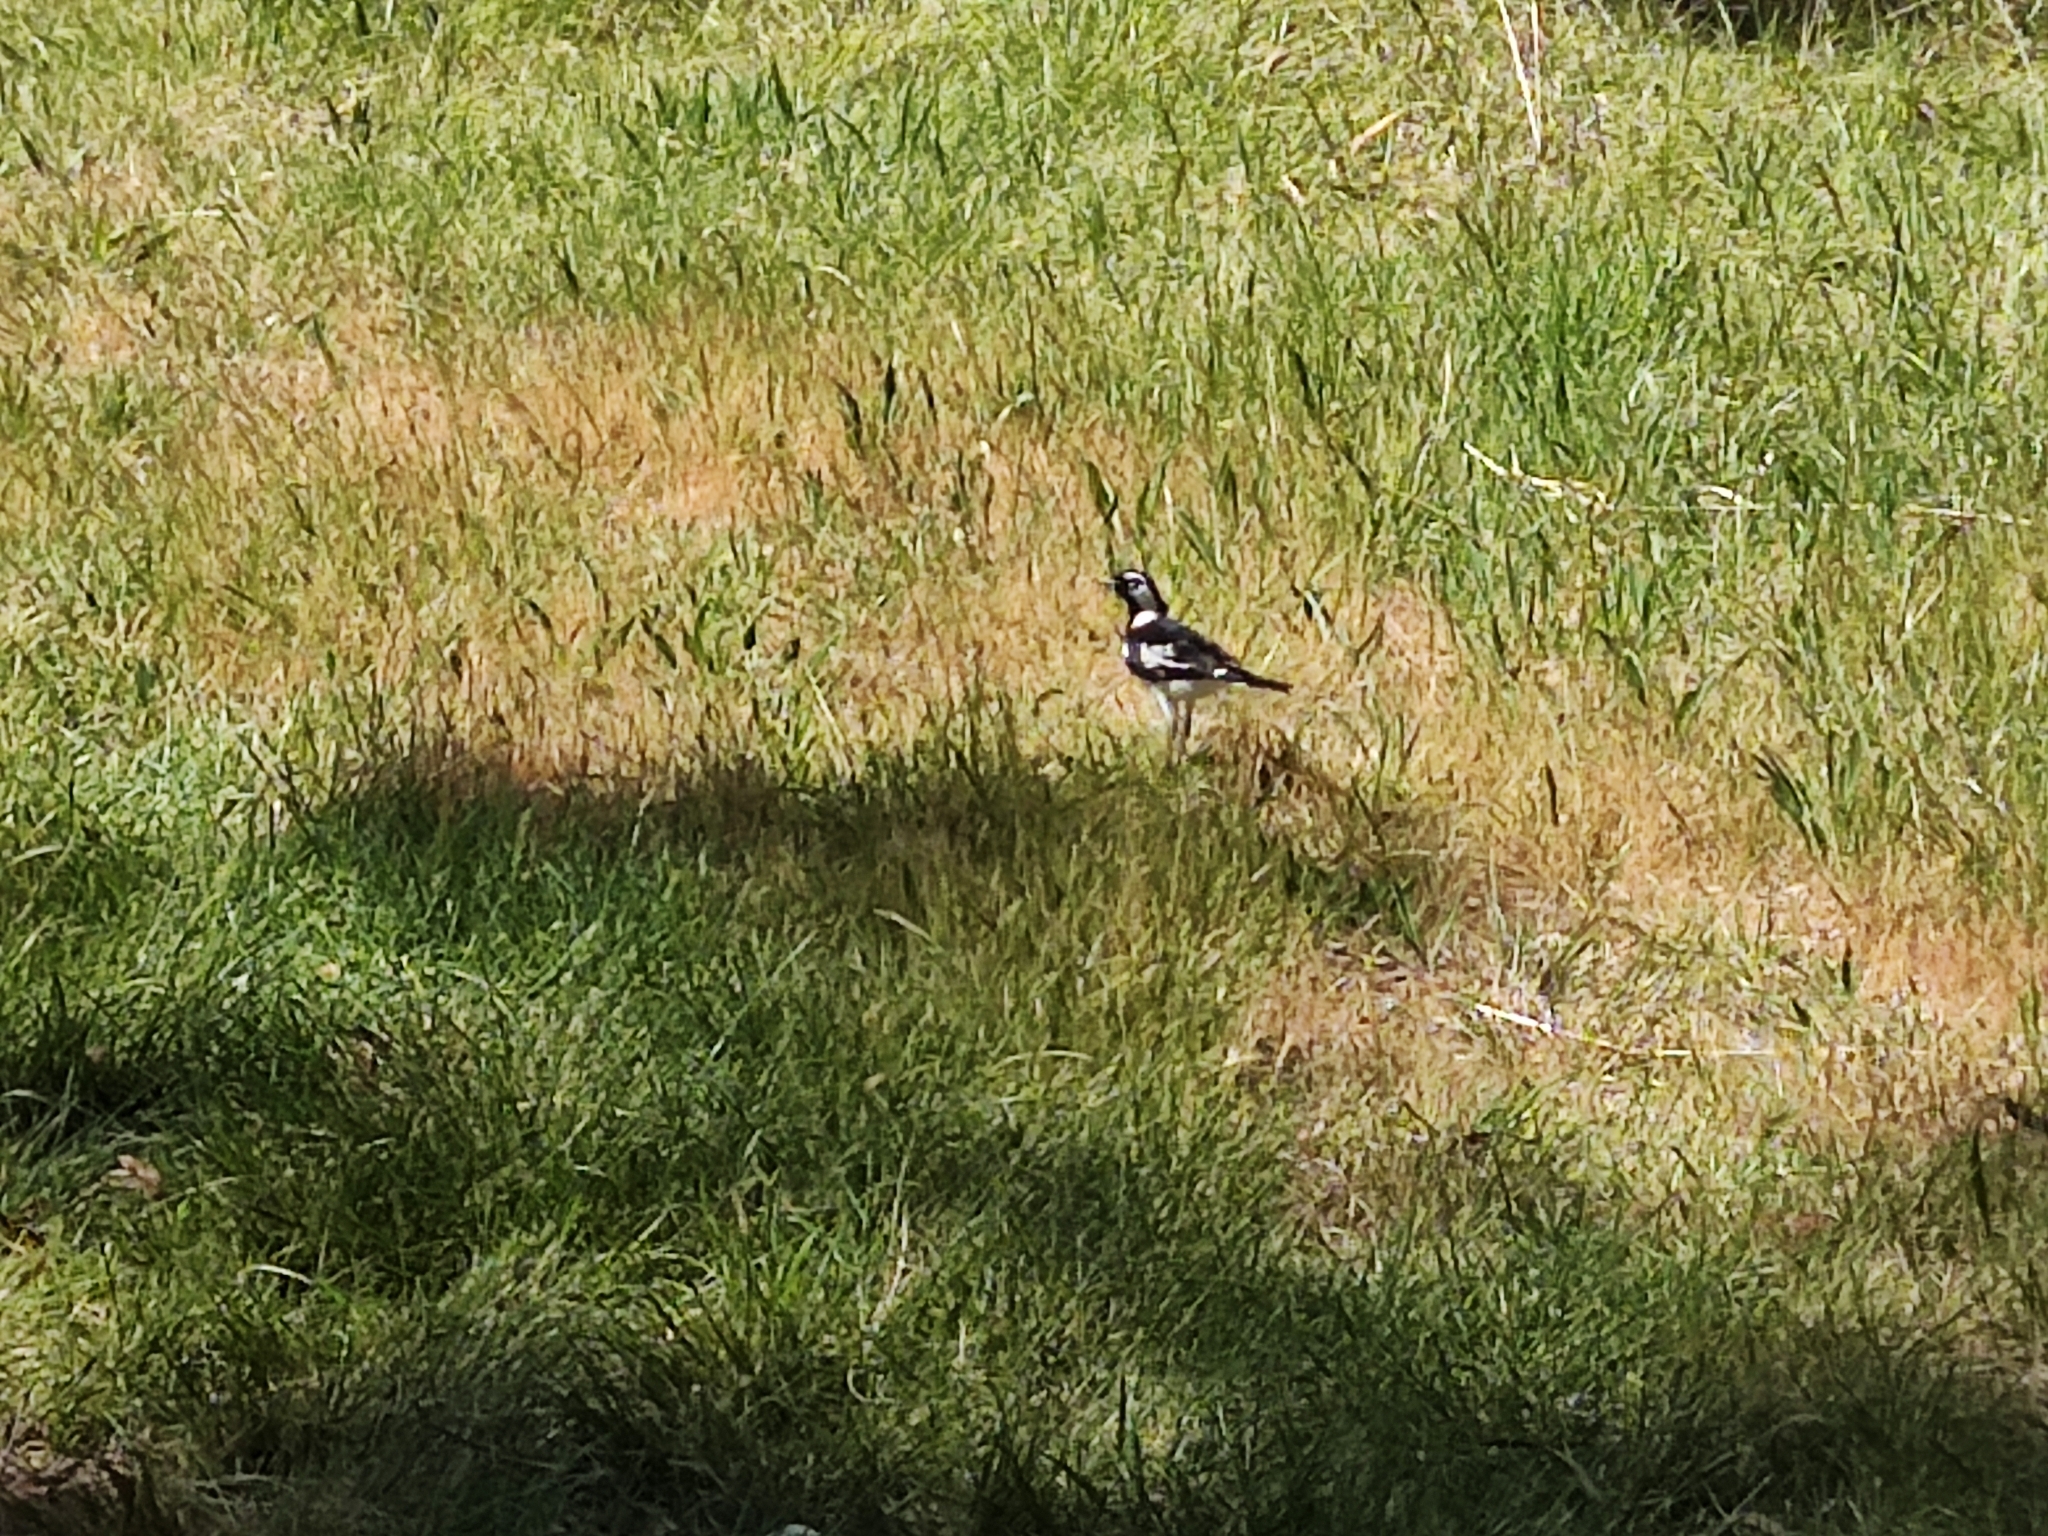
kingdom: Animalia
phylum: Chordata
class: Aves
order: Passeriformes
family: Monarchidae
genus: Grallina
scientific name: Grallina cyanoleuca
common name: Magpie-lark
